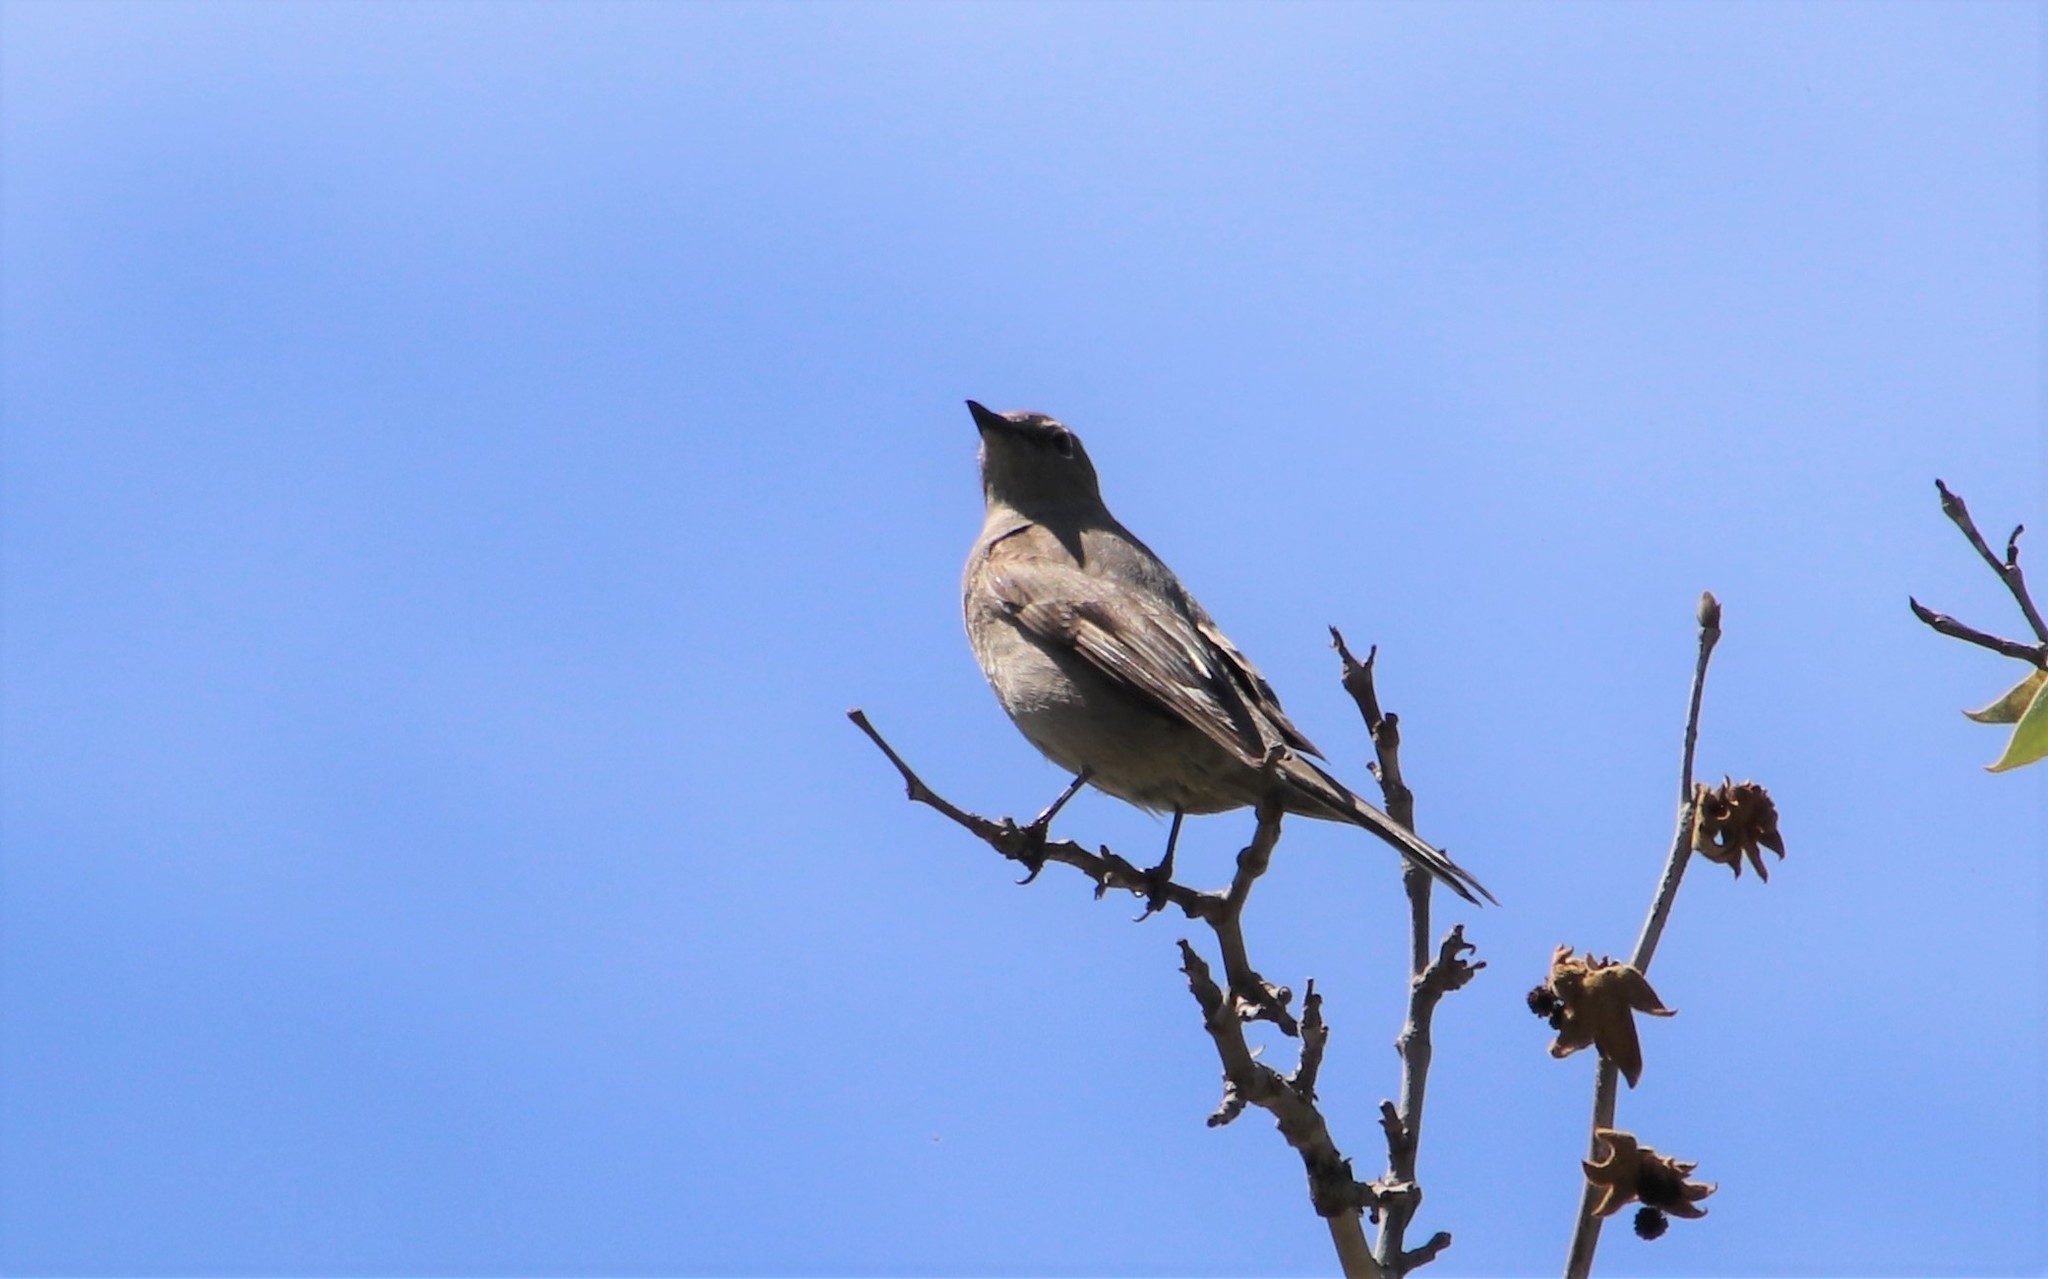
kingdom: Animalia
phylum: Chordata
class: Aves
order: Passeriformes
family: Turdidae
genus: Myadestes
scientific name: Myadestes townsendi
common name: Townsend's solitaire
